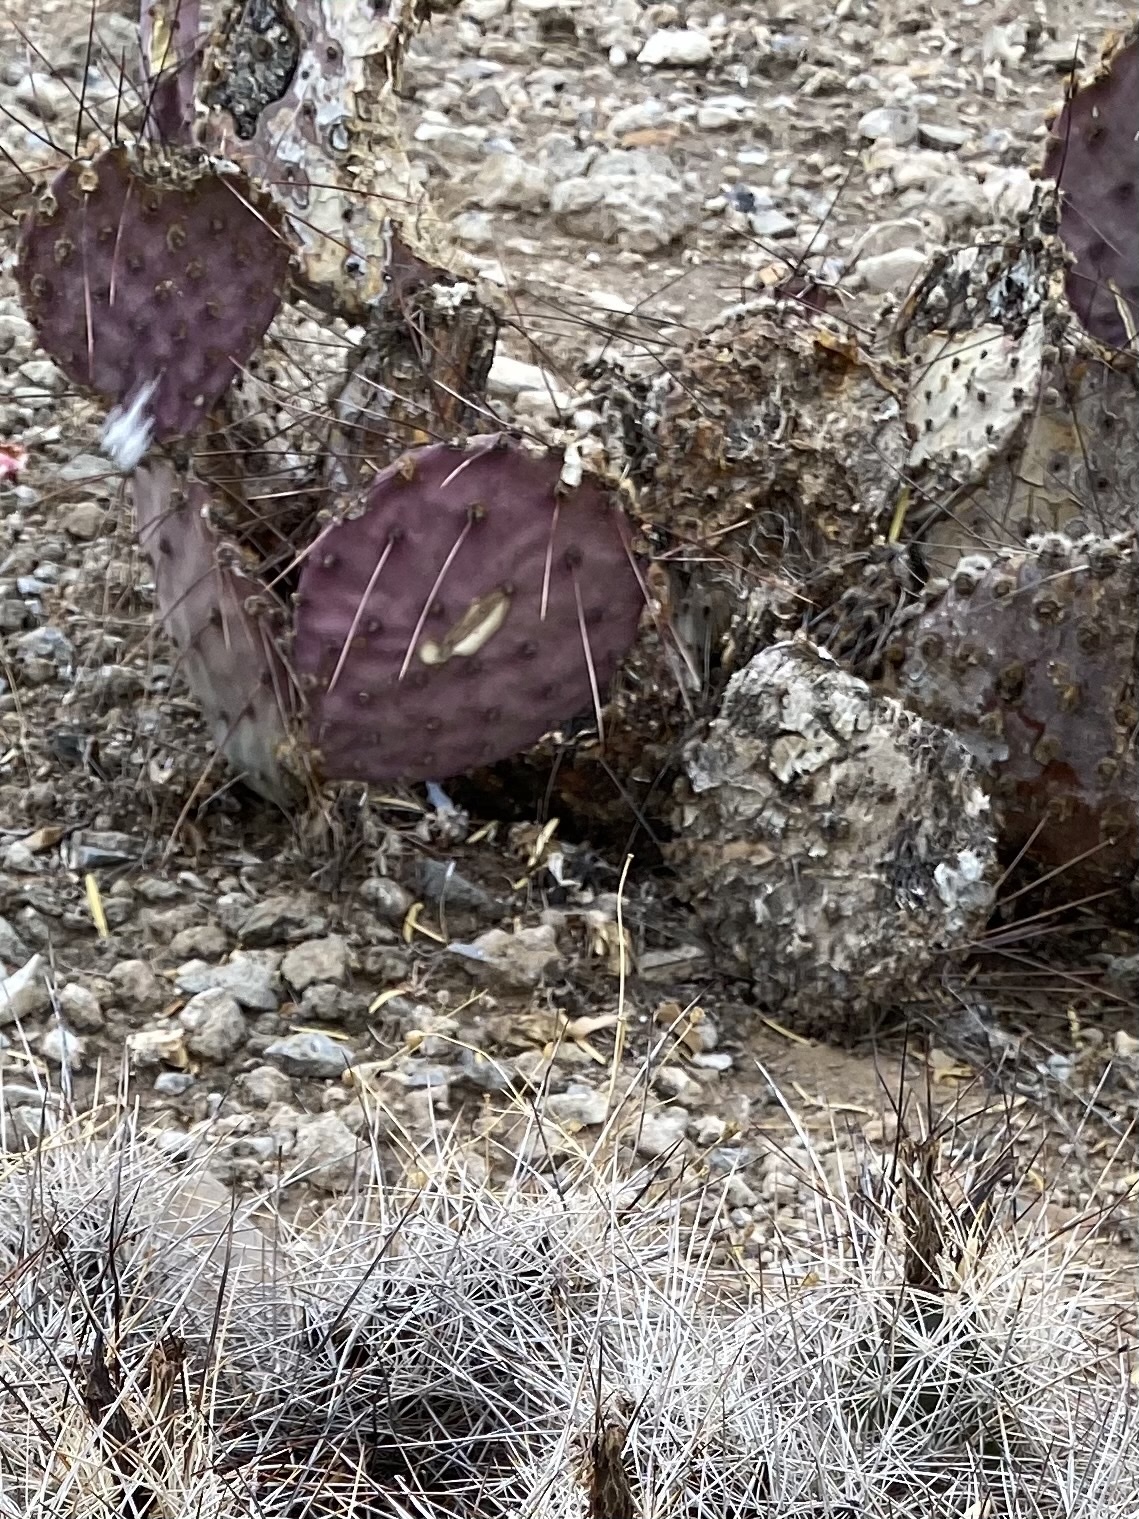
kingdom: Plantae
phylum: Tracheophyta
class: Magnoliopsida
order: Caryophyllales
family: Cactaceae
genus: Opuntia
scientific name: Opuntia macrocentra
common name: Purple prickly-pear
